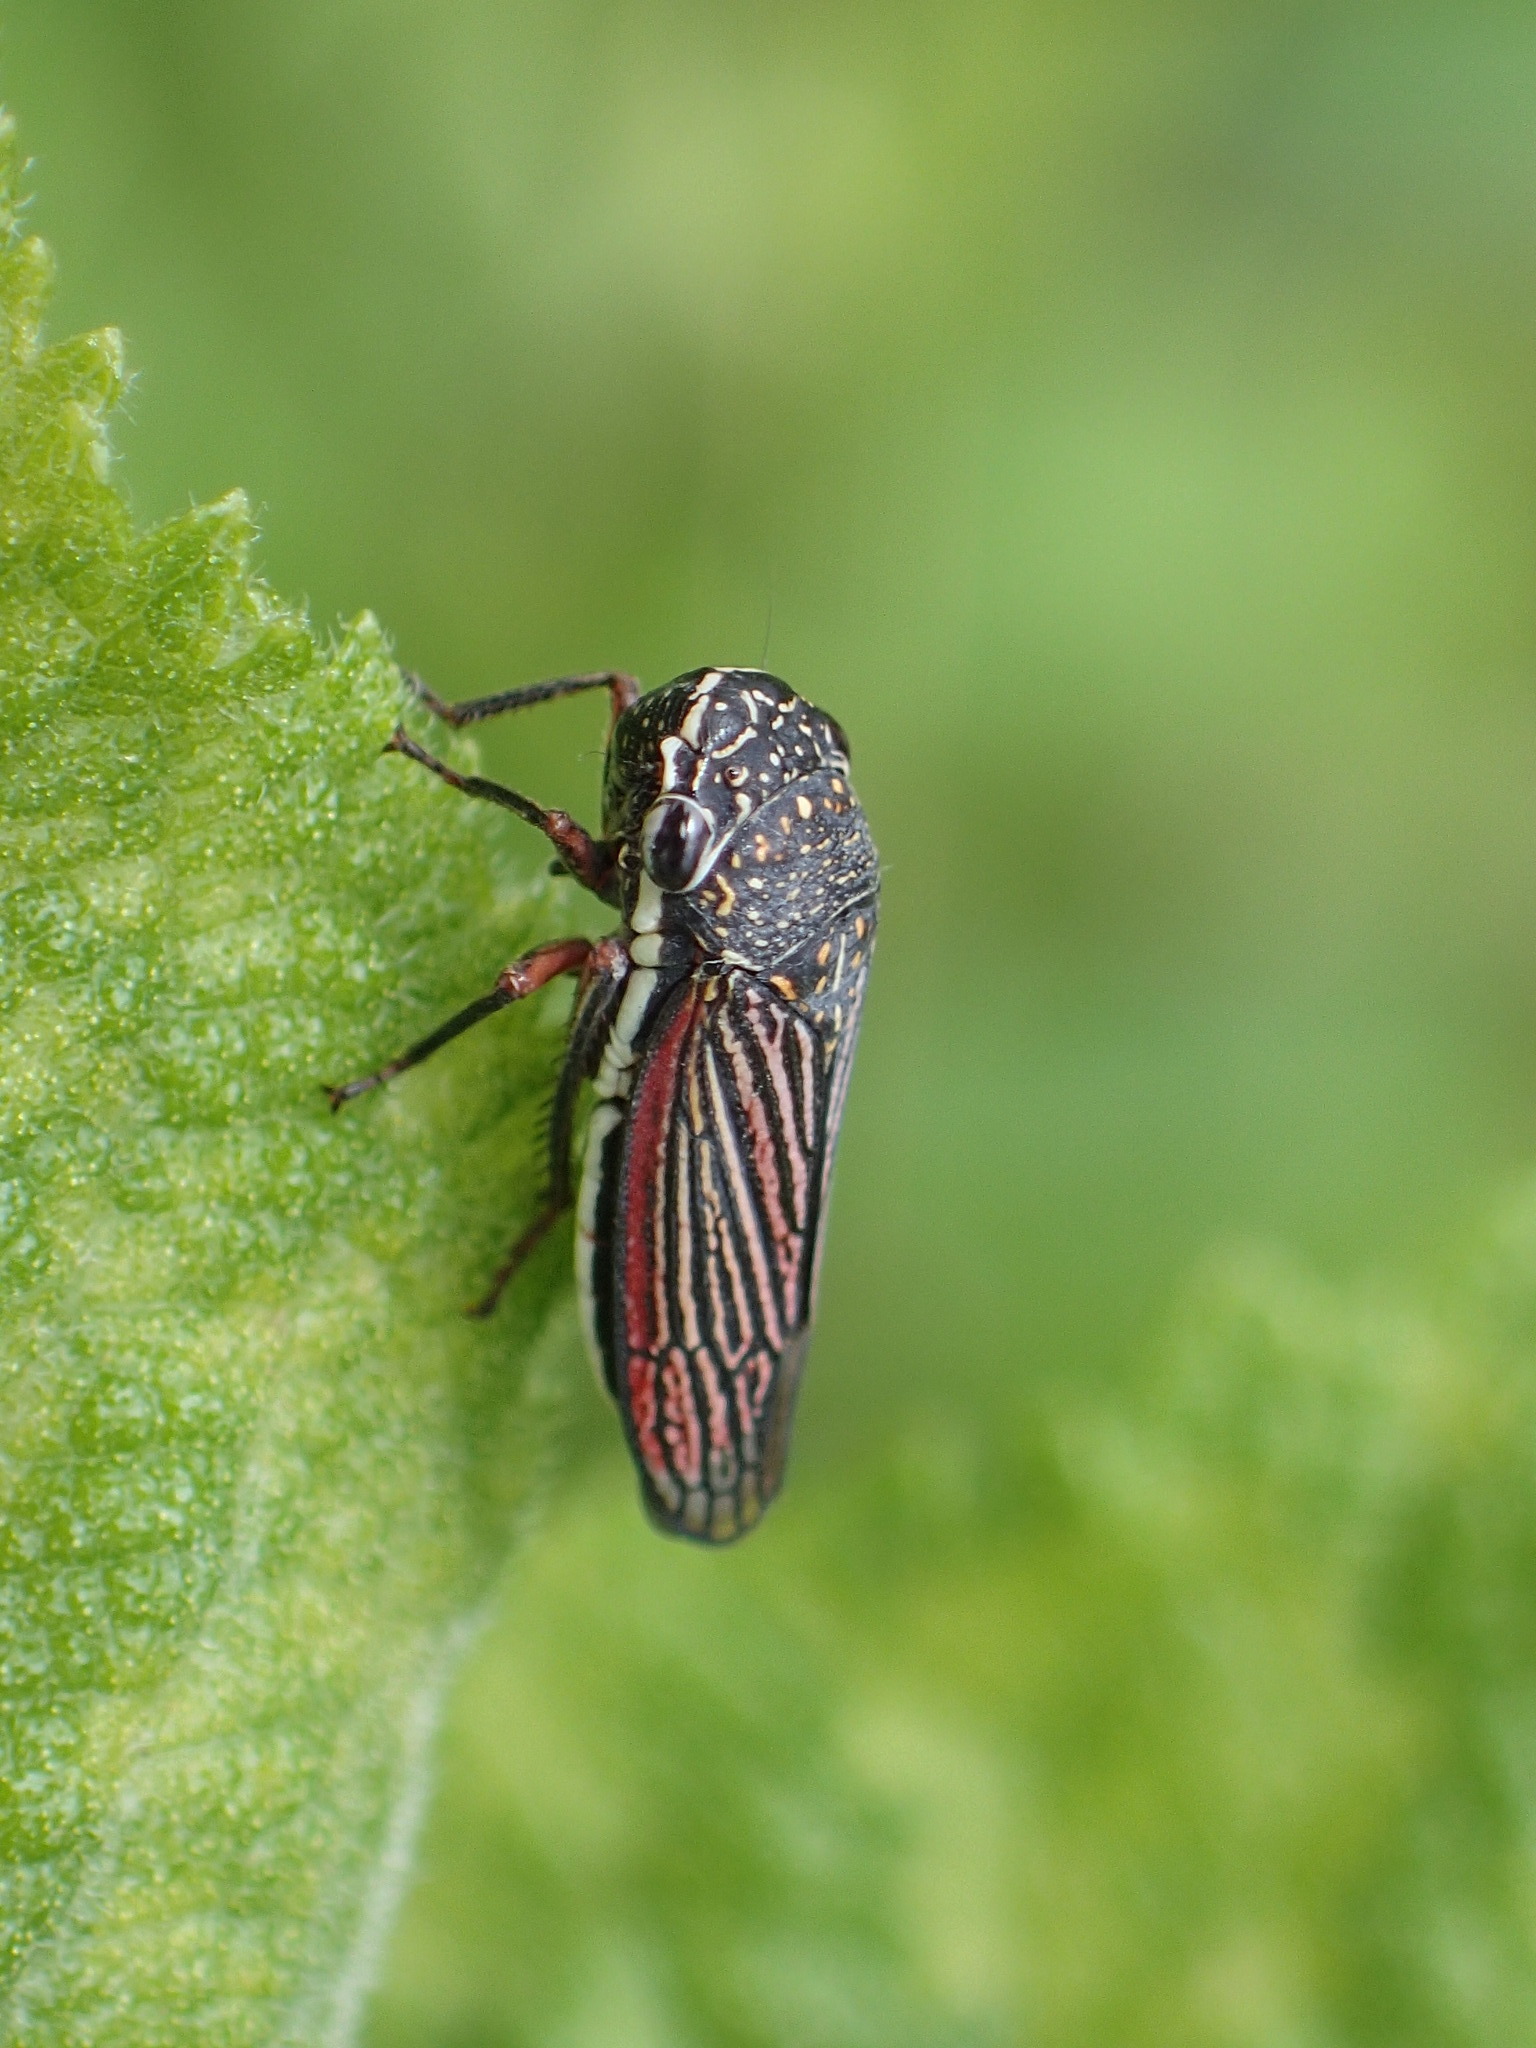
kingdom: Animalia
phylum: Arthropoda
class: Insecta
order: Hemiptera
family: Cicadellidae
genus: Cuerna
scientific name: Cuerna costalis
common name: Lateral-lined sharpshooter
